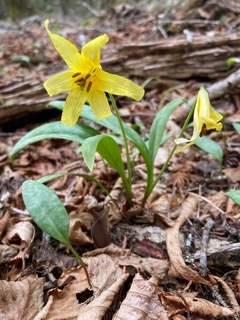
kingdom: Plantae
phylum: Tracheophyta
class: Liliopsida
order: Liliales
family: Liliaceae
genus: Erythronium
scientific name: Erythronium americanum
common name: Yellow adder's-tongue
